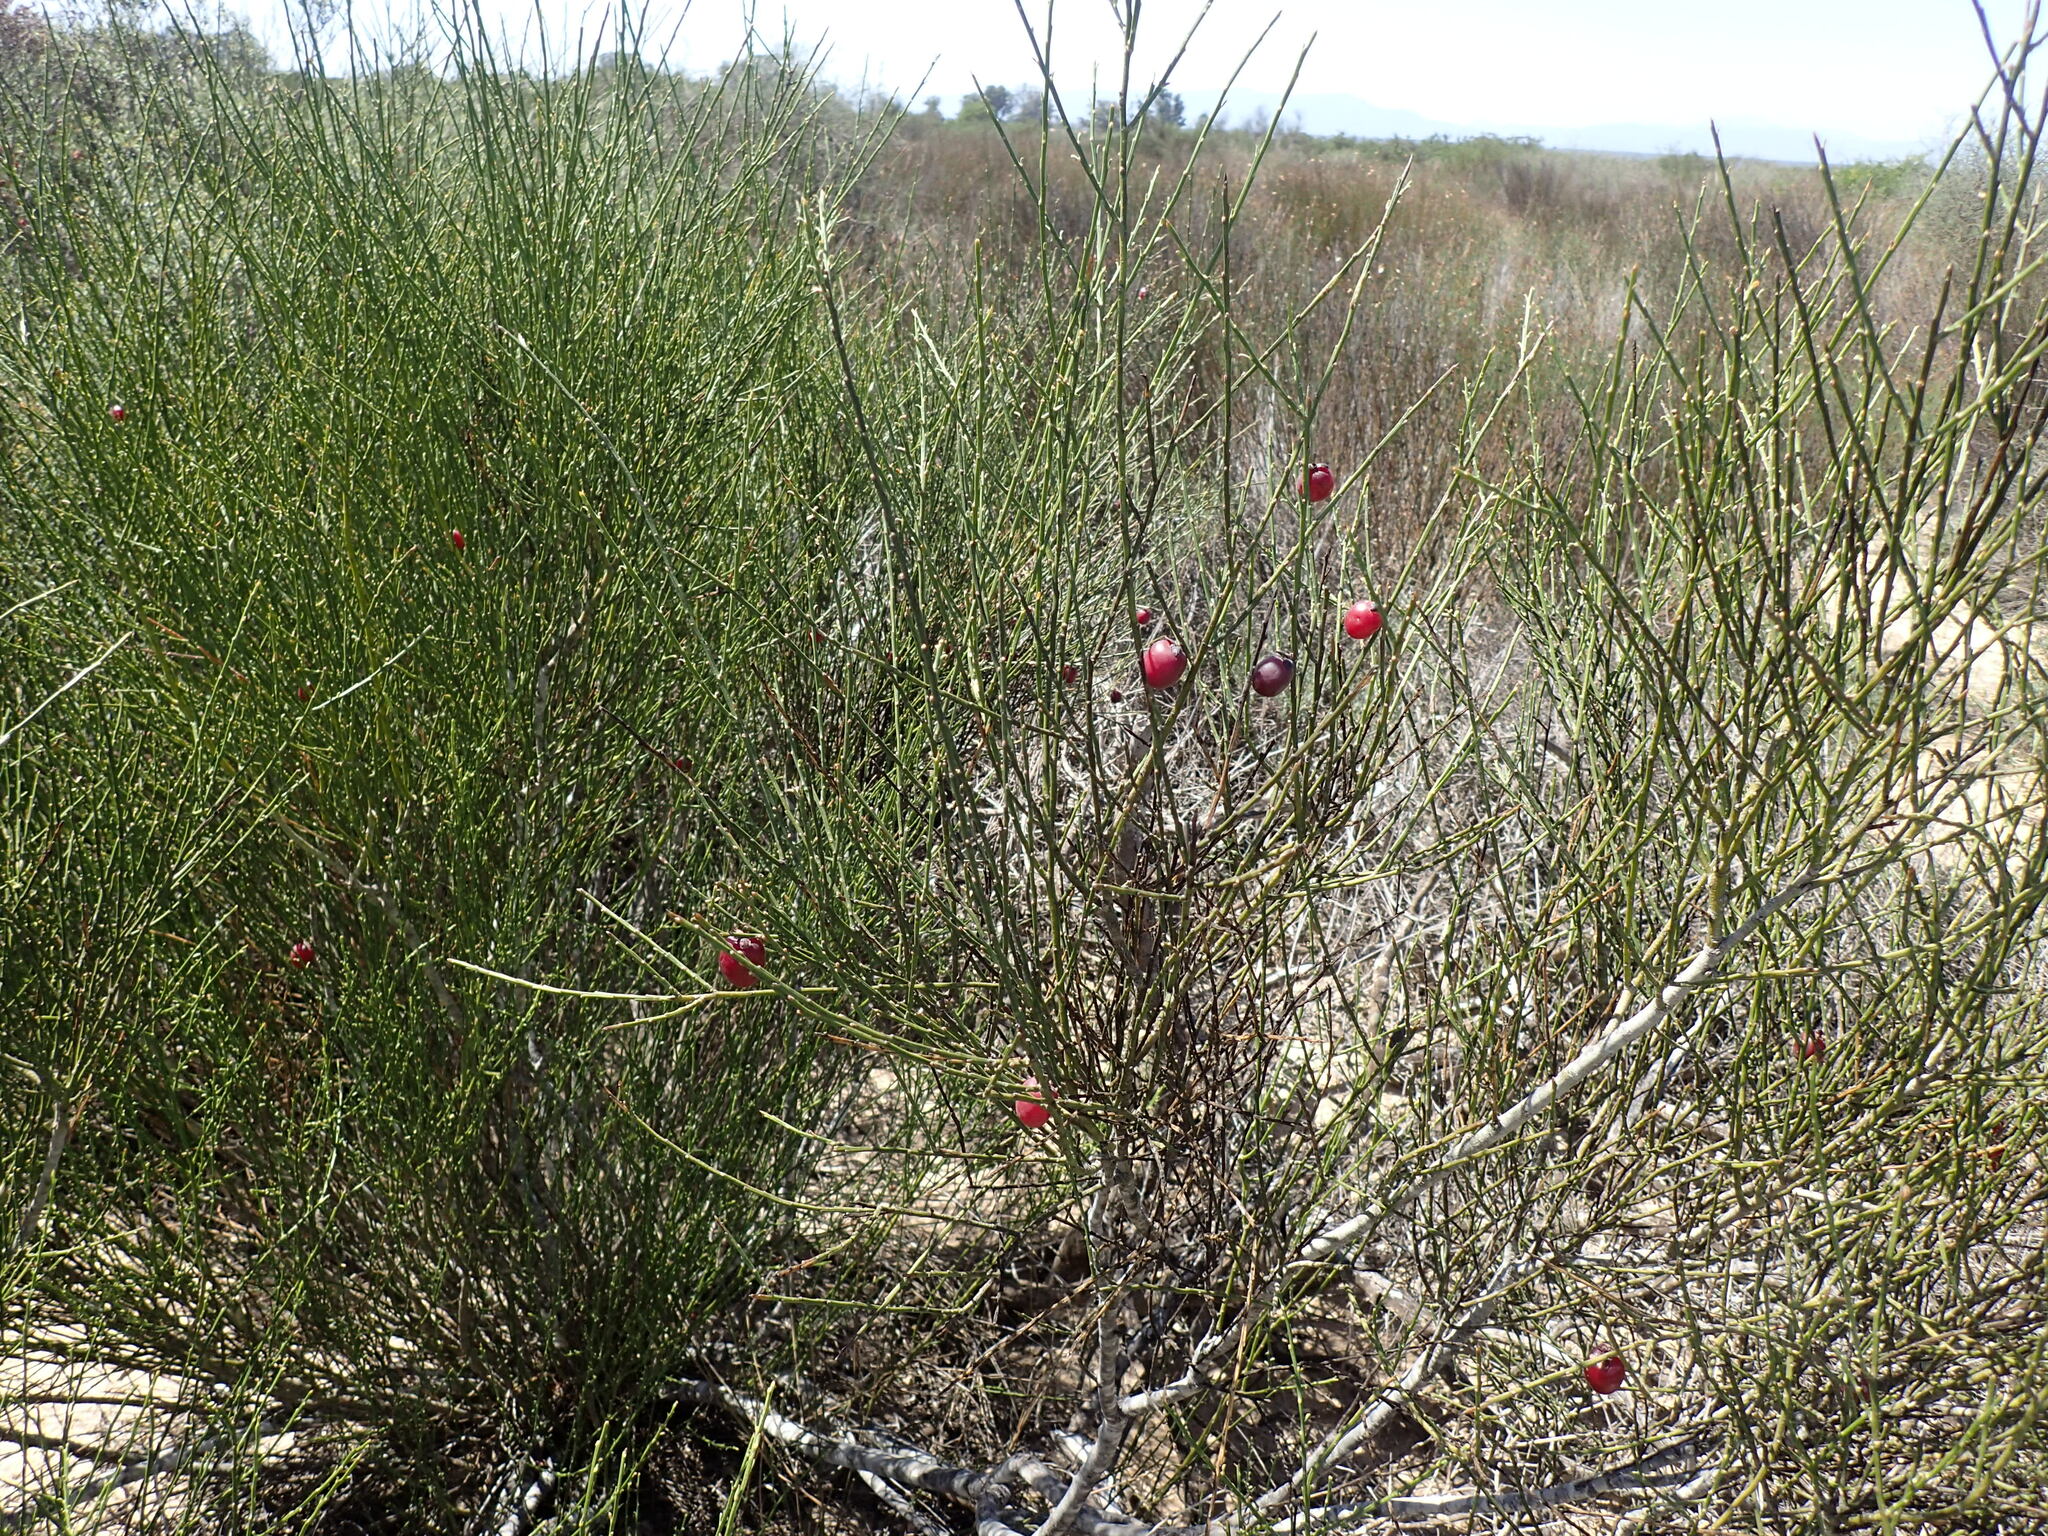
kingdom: Plantae
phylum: Tracheophyta
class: Magnoliopsida
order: Fabales
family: Polygalaceae
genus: Muraltia
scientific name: Muraltia spinosa
